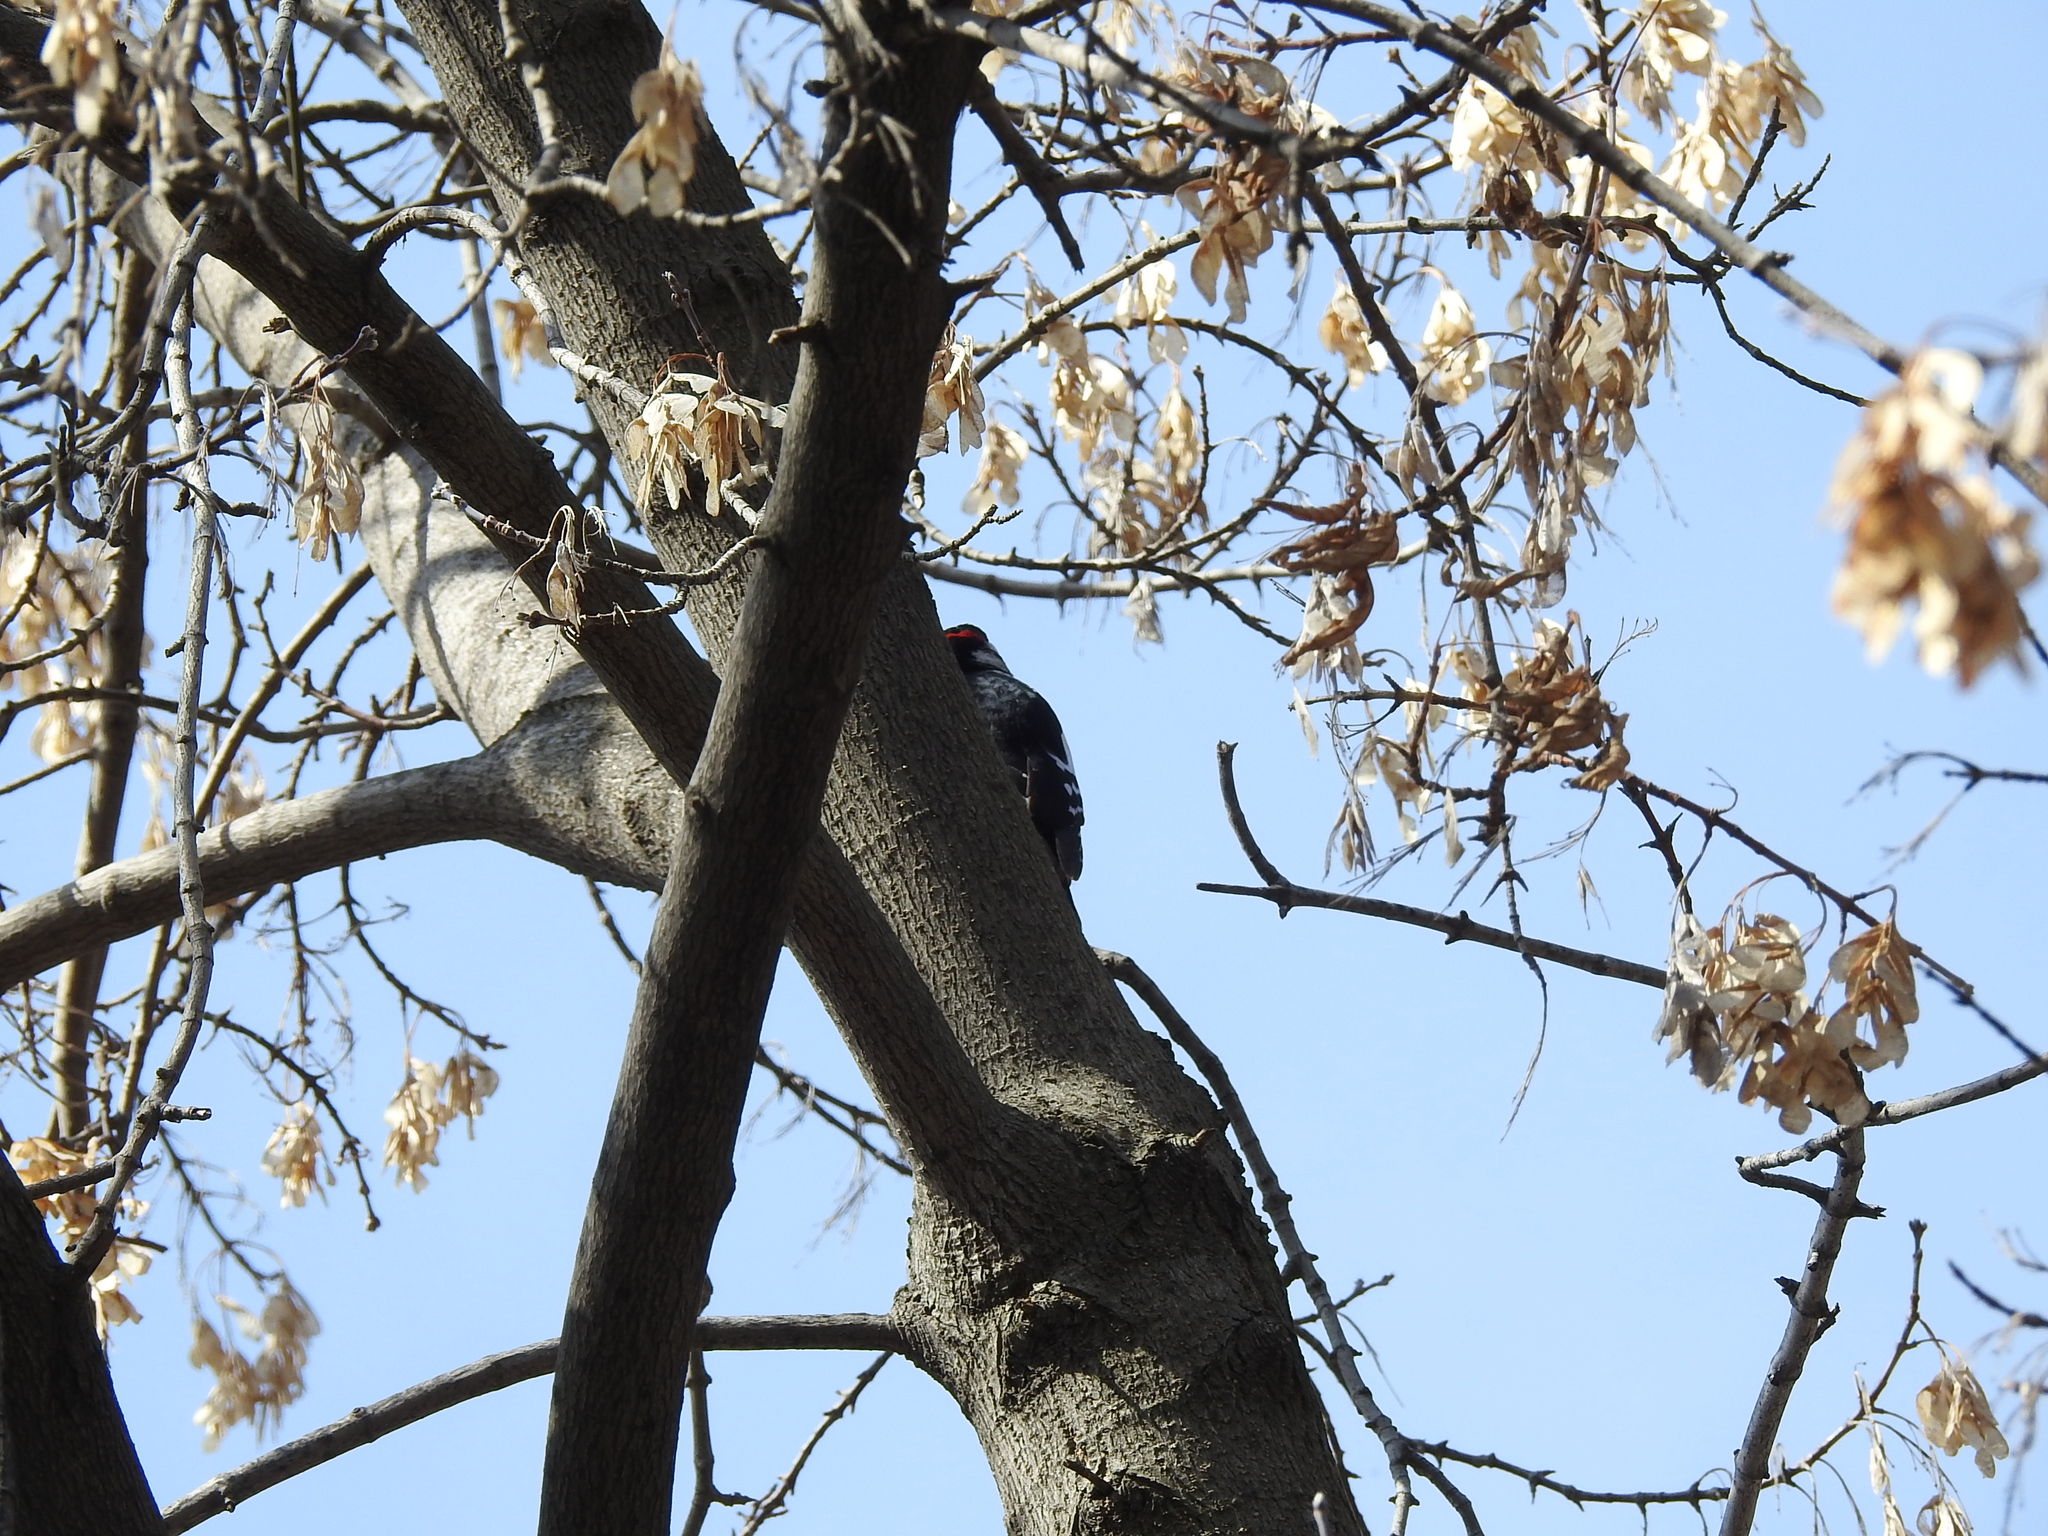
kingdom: Animalia
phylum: Chordata
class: Aves
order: Piciformes
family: Picidae
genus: Dendrocopos
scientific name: Dendrocopos major
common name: Great spotted woodpecker
